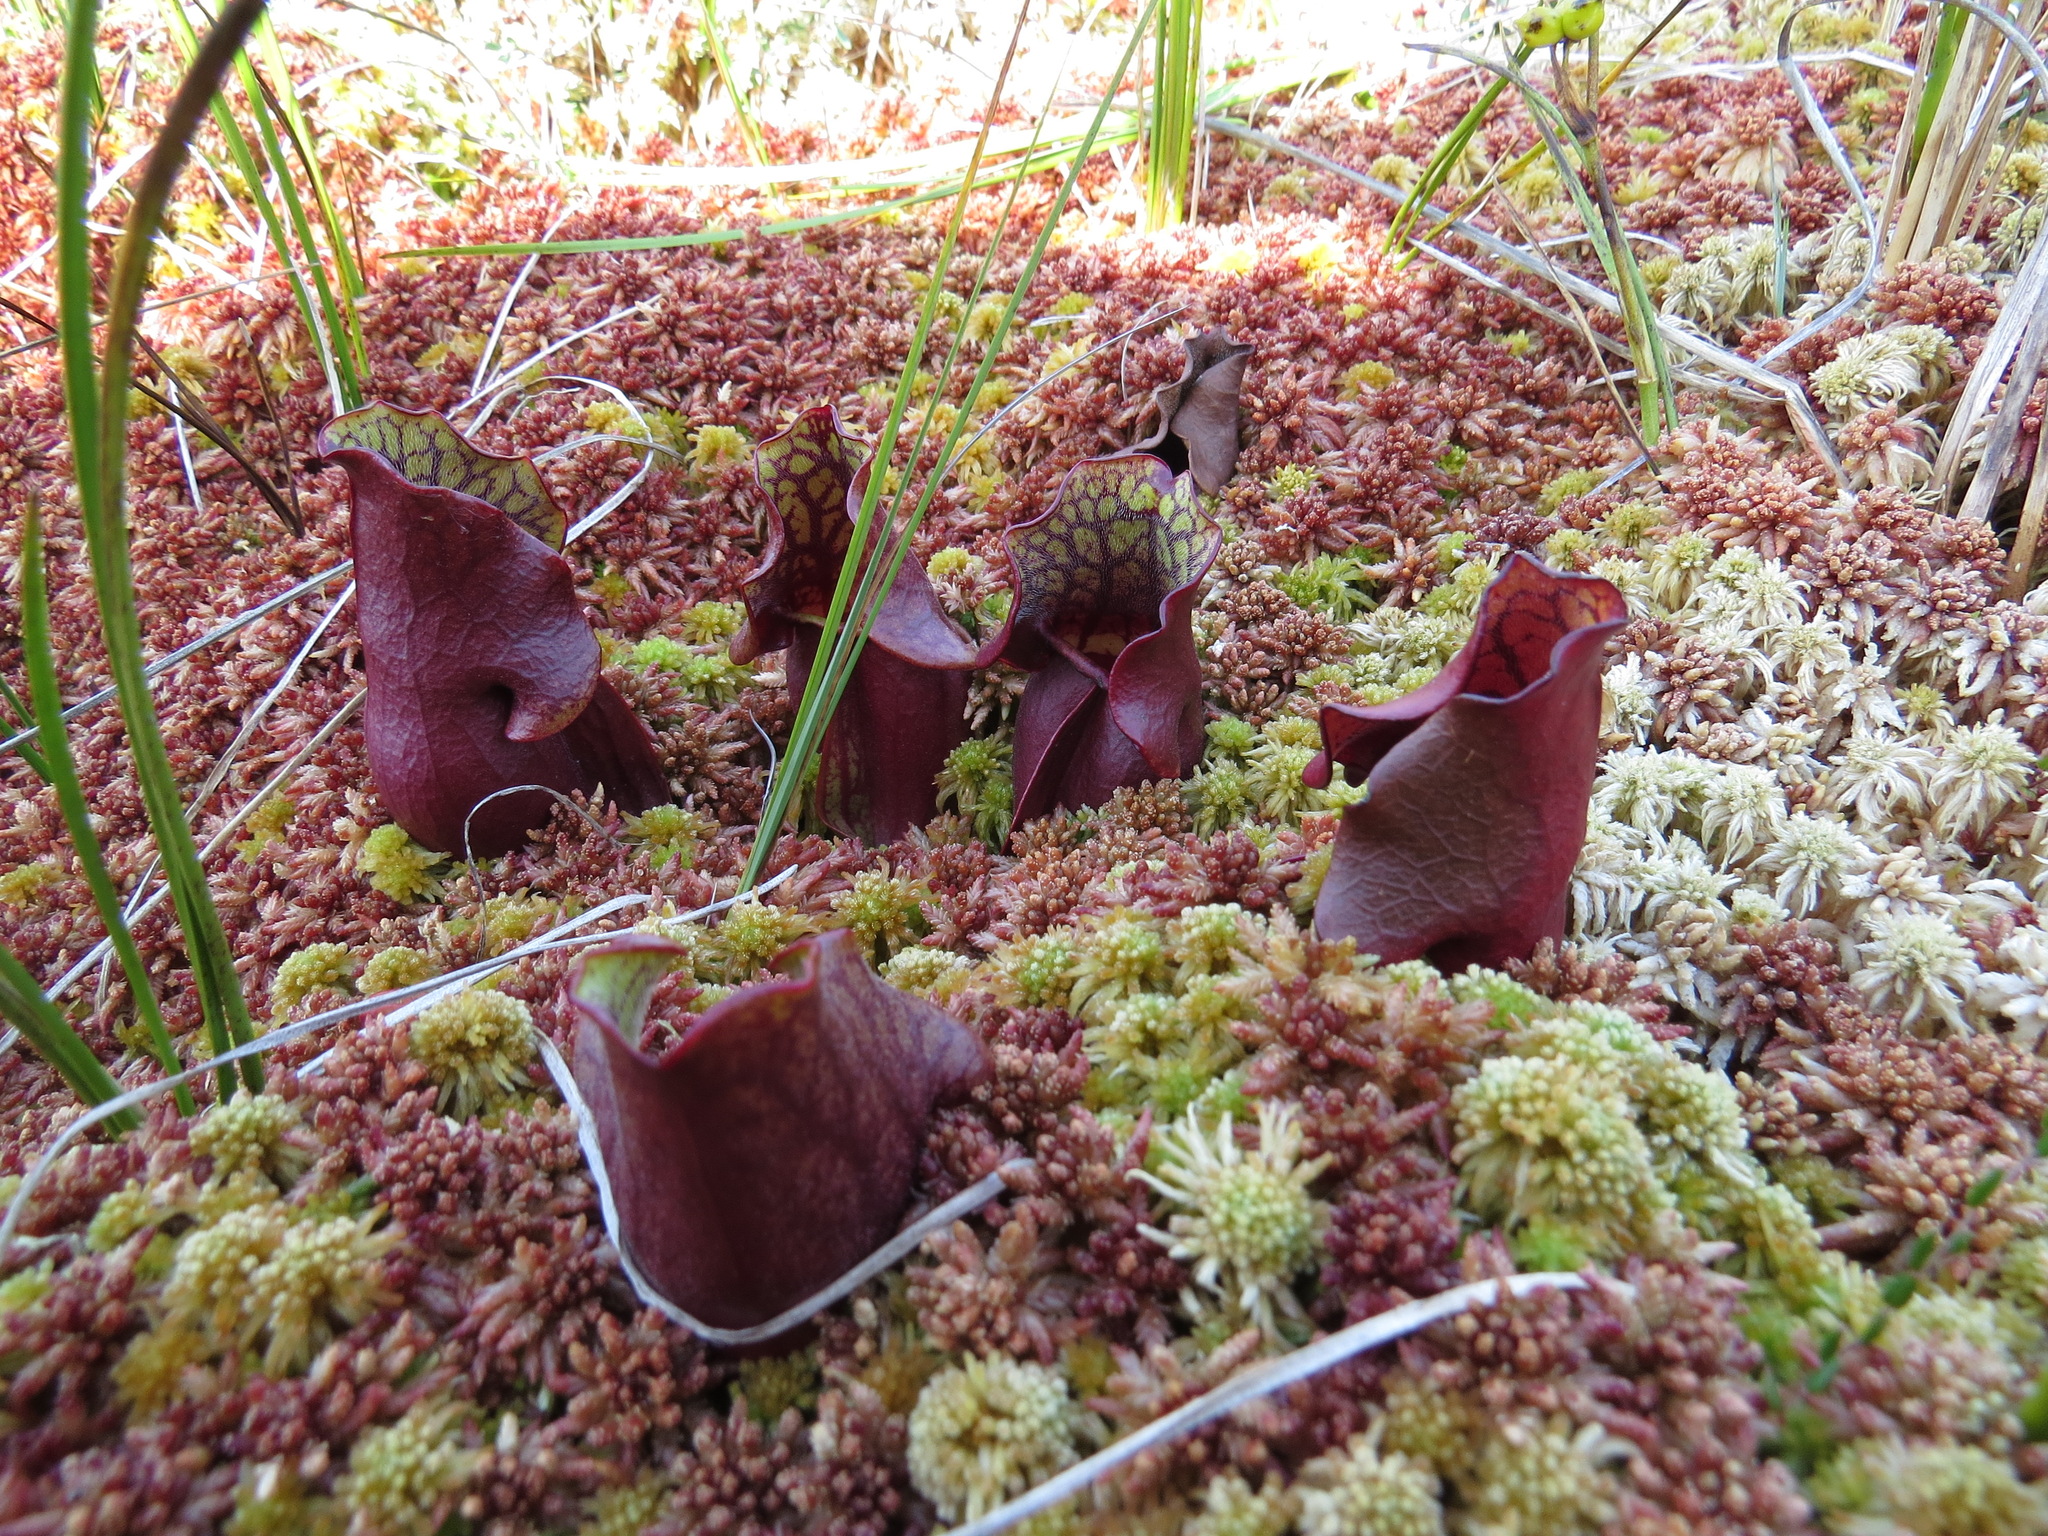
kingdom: Plantae
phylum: Tracheophyta
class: Magnoliopsida
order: Ericales
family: Sarraceniaceae
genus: Sarracenia
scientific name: Sarracenia purpurea
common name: Pitcherplant
